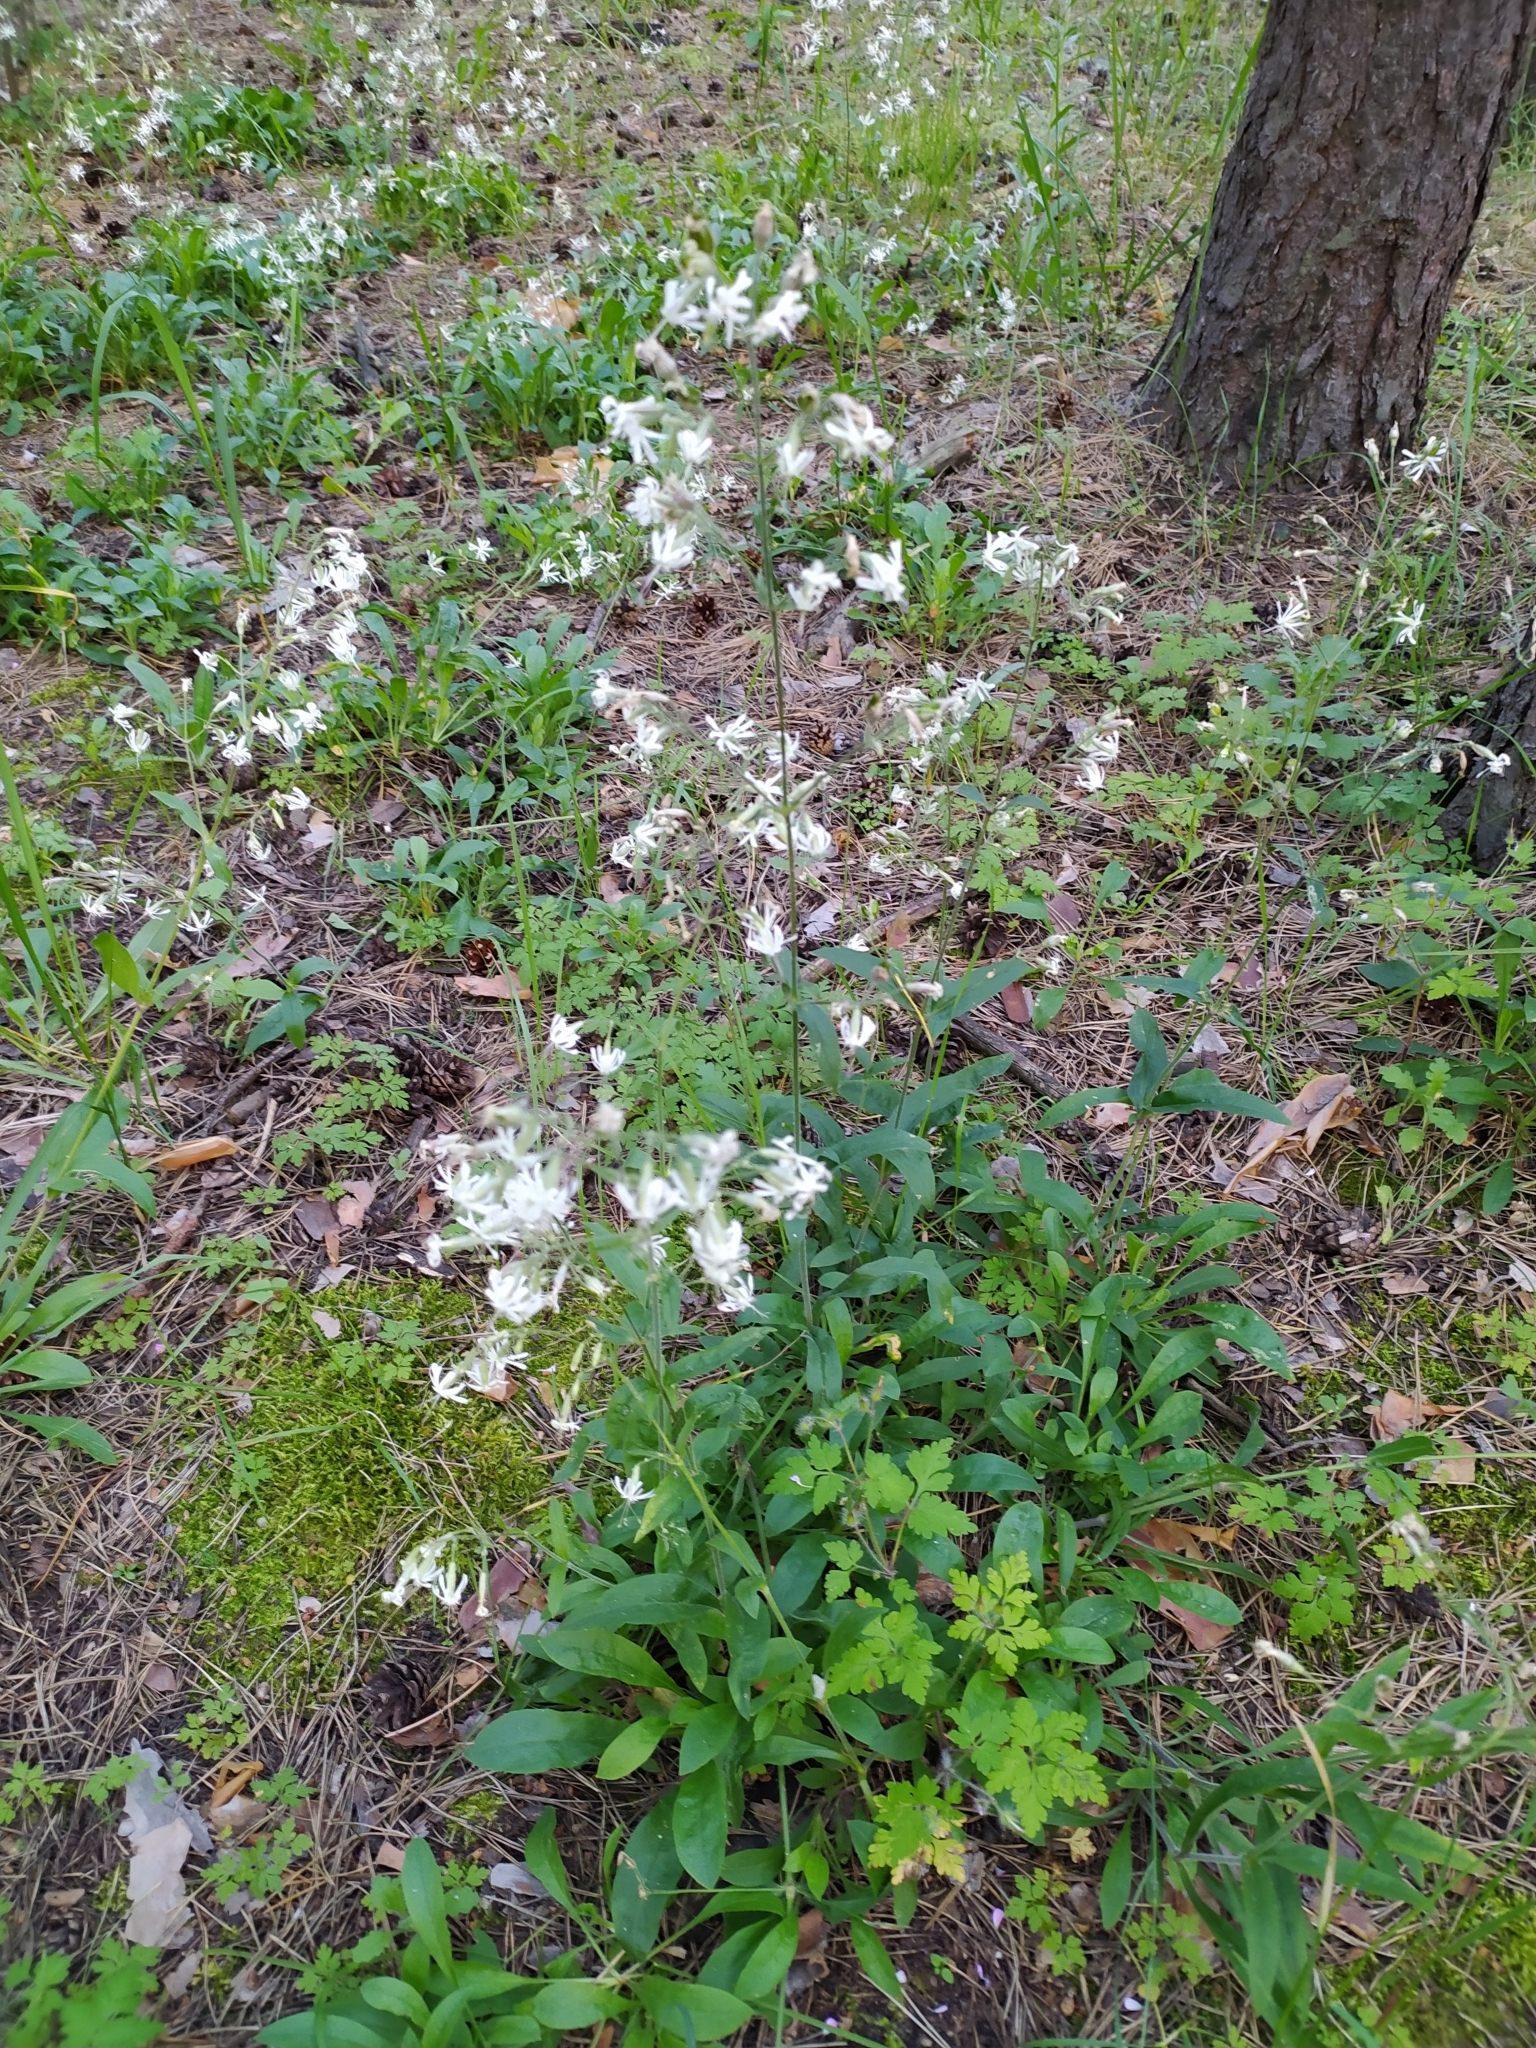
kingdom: Plantae
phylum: Tracheophyta
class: Magnoliopsida
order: Caryophyllales
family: Caryophyllaceae
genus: Silene
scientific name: Silene nutans
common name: Nottingham catchfly
